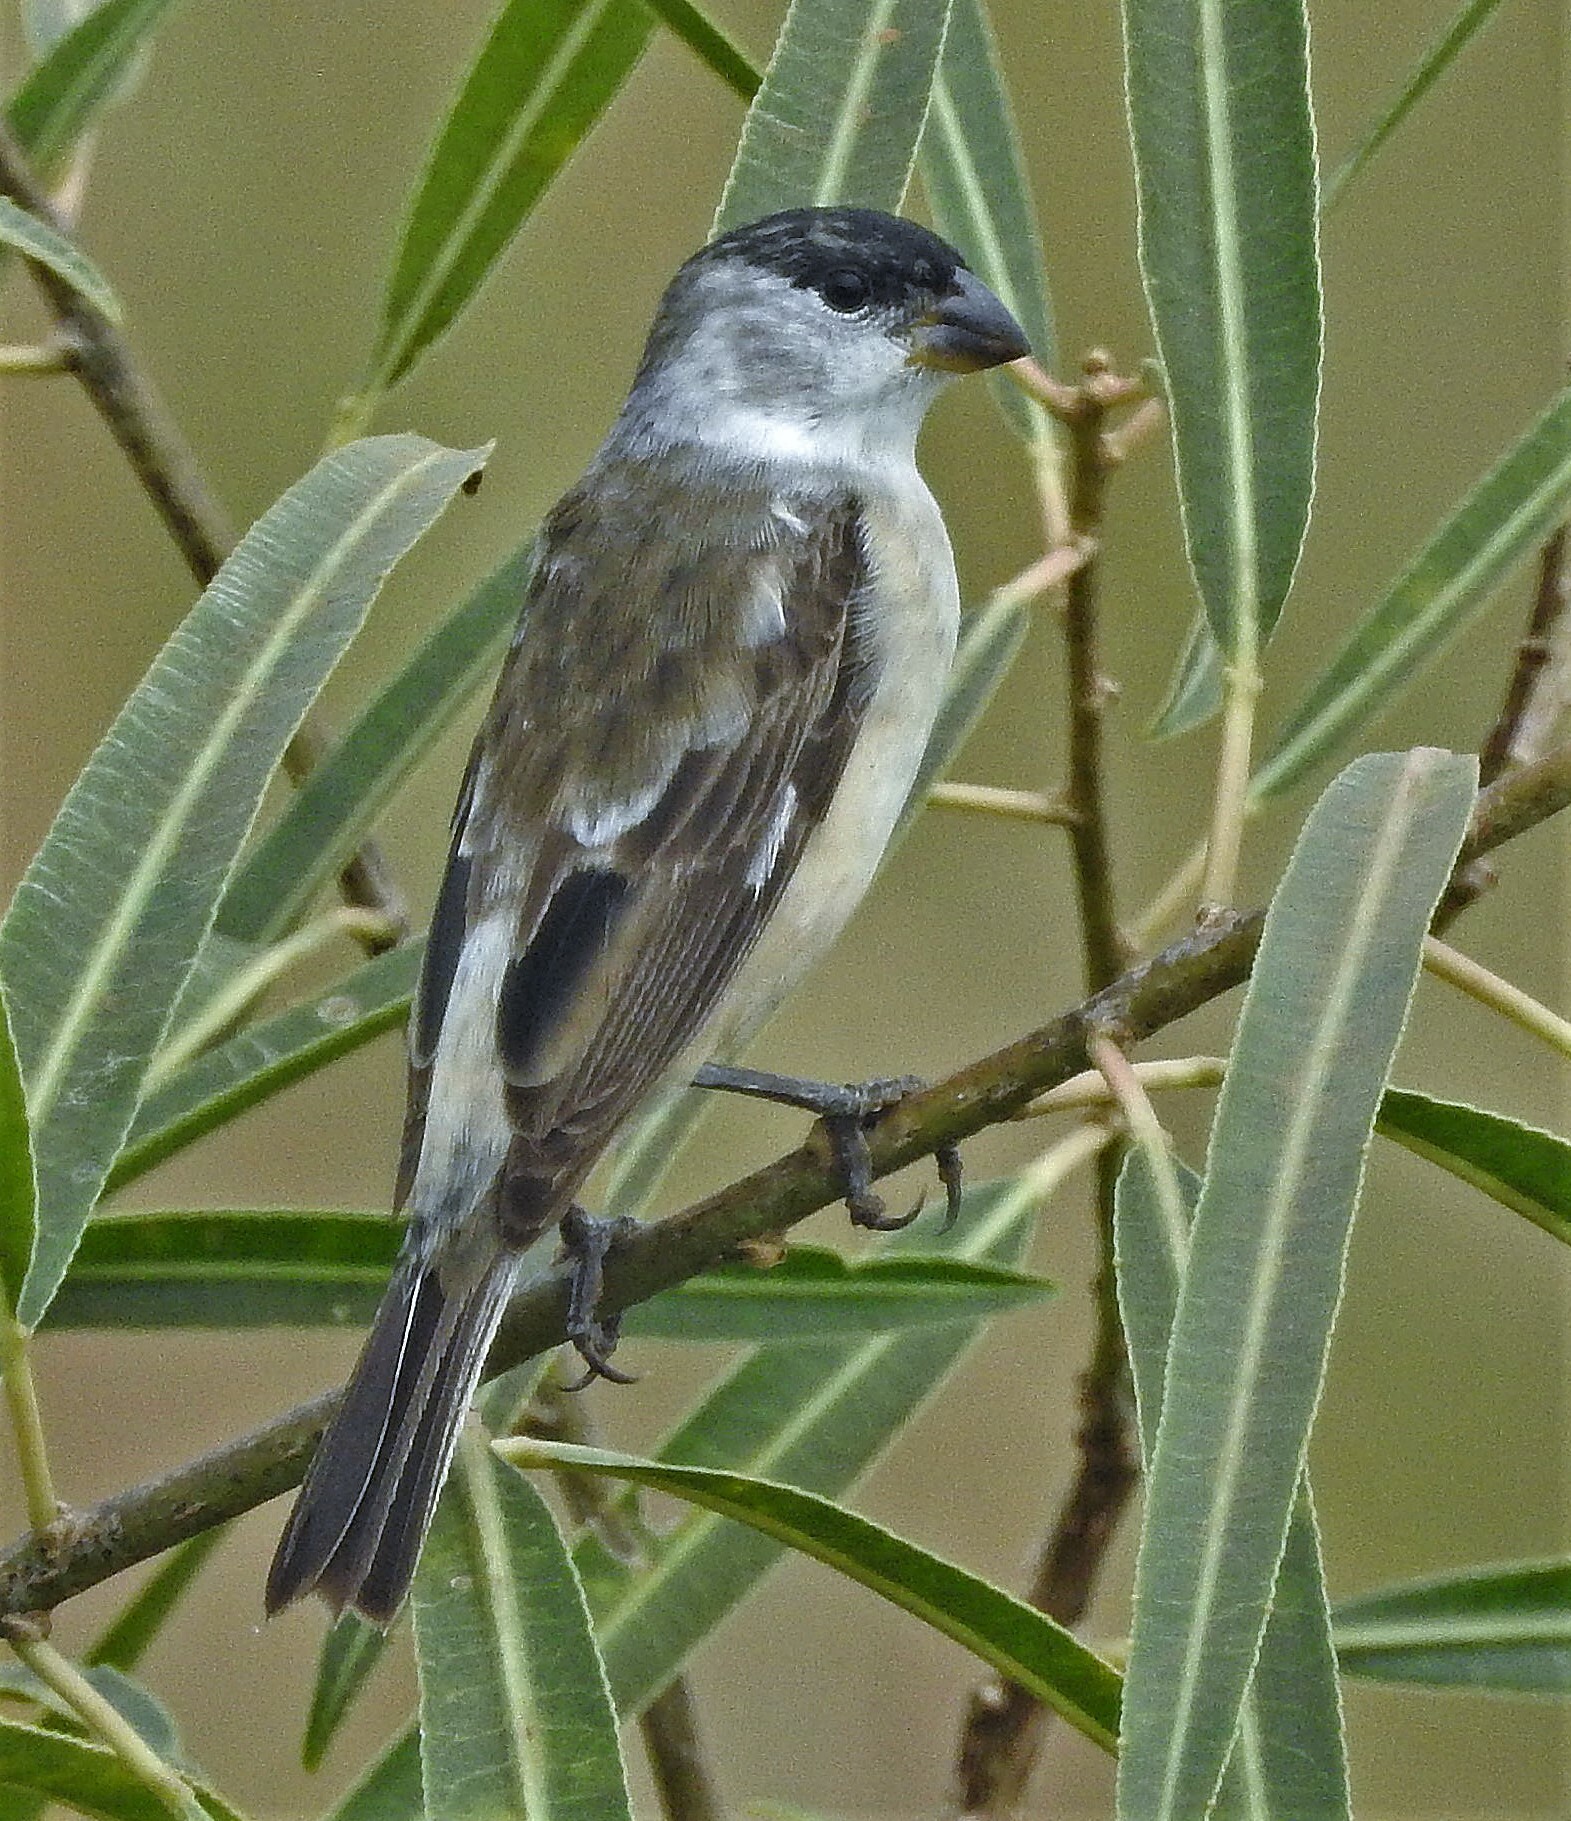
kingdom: Animalia
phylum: Chordata
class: Aves
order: Passeriformes
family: Thraupidae
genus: Sporophila
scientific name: Sporophila pileata
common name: Pearly-bellied seedeater
